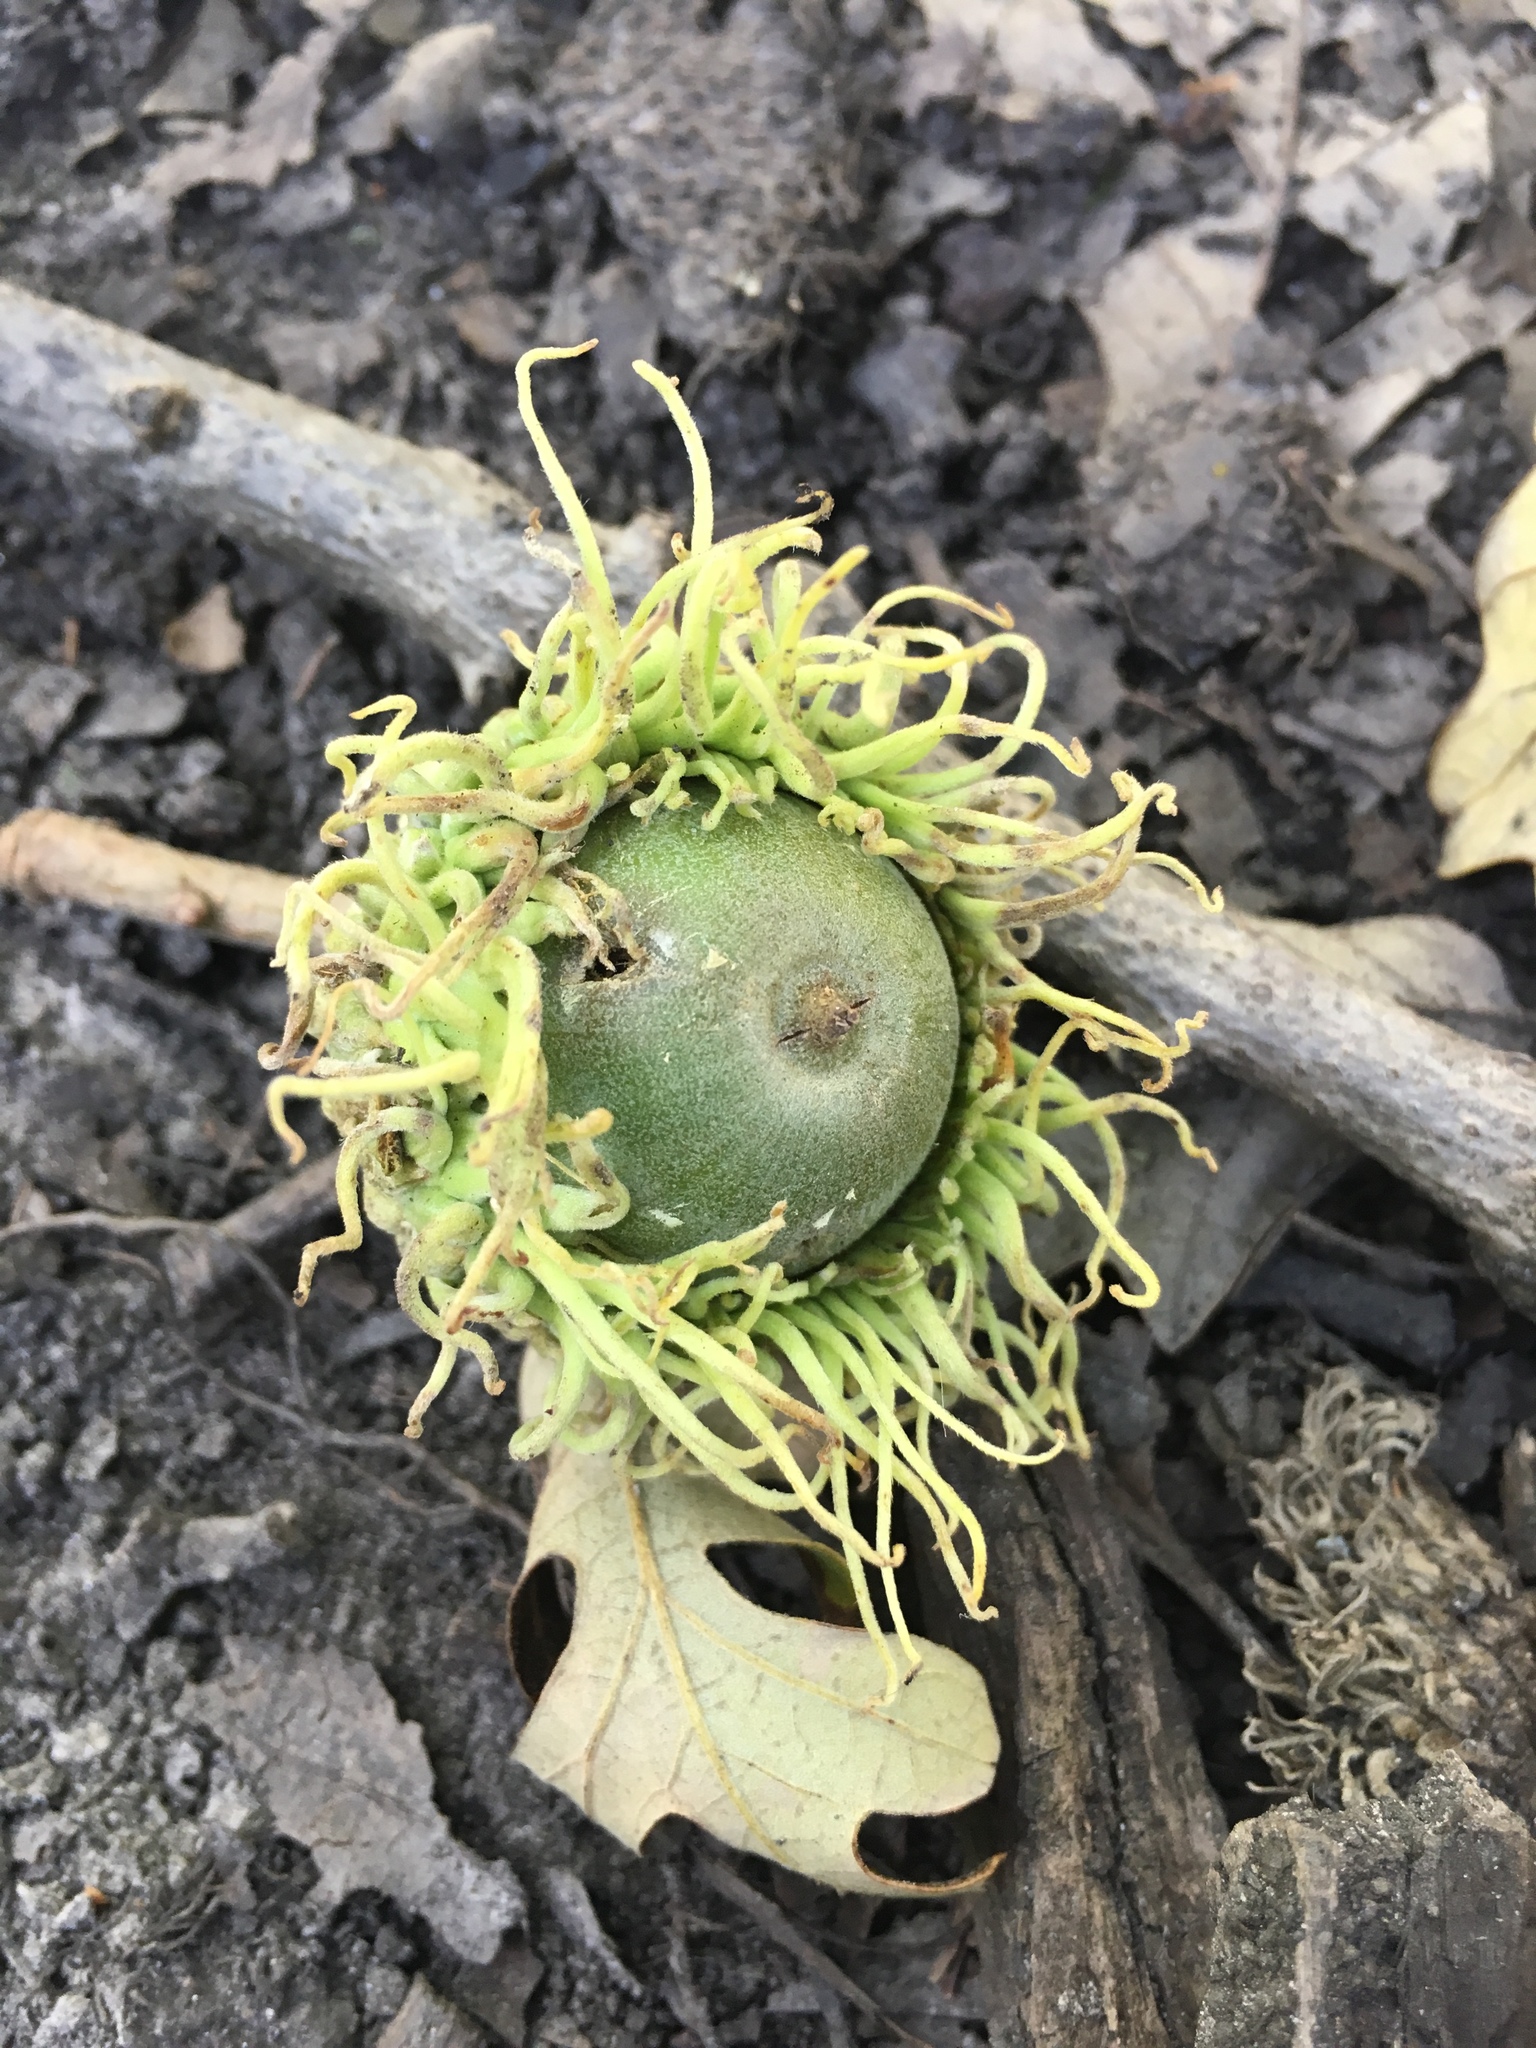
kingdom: Plantae
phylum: Tracheophyta
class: Magnoliopsida
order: Fagales
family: Fagaceae
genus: Quercus
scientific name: Quercus macrocarpa
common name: Bur oak
